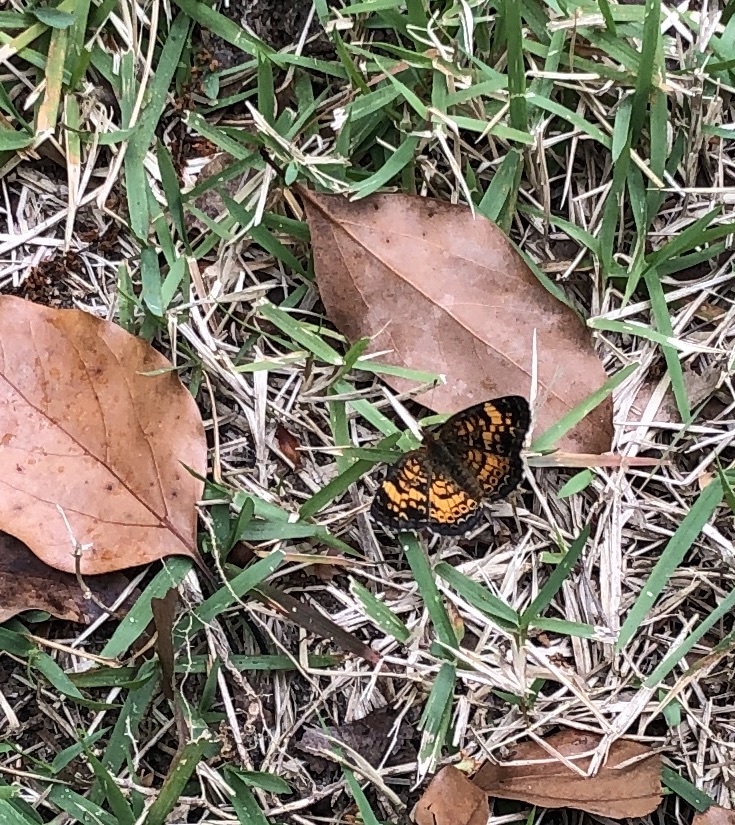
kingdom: Animalia
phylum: Arthropoda
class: Insecta
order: Lepidoptera
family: Nymphalidae
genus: Phyciodes
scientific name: Phyciodes tharos
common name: Pearl crescent
